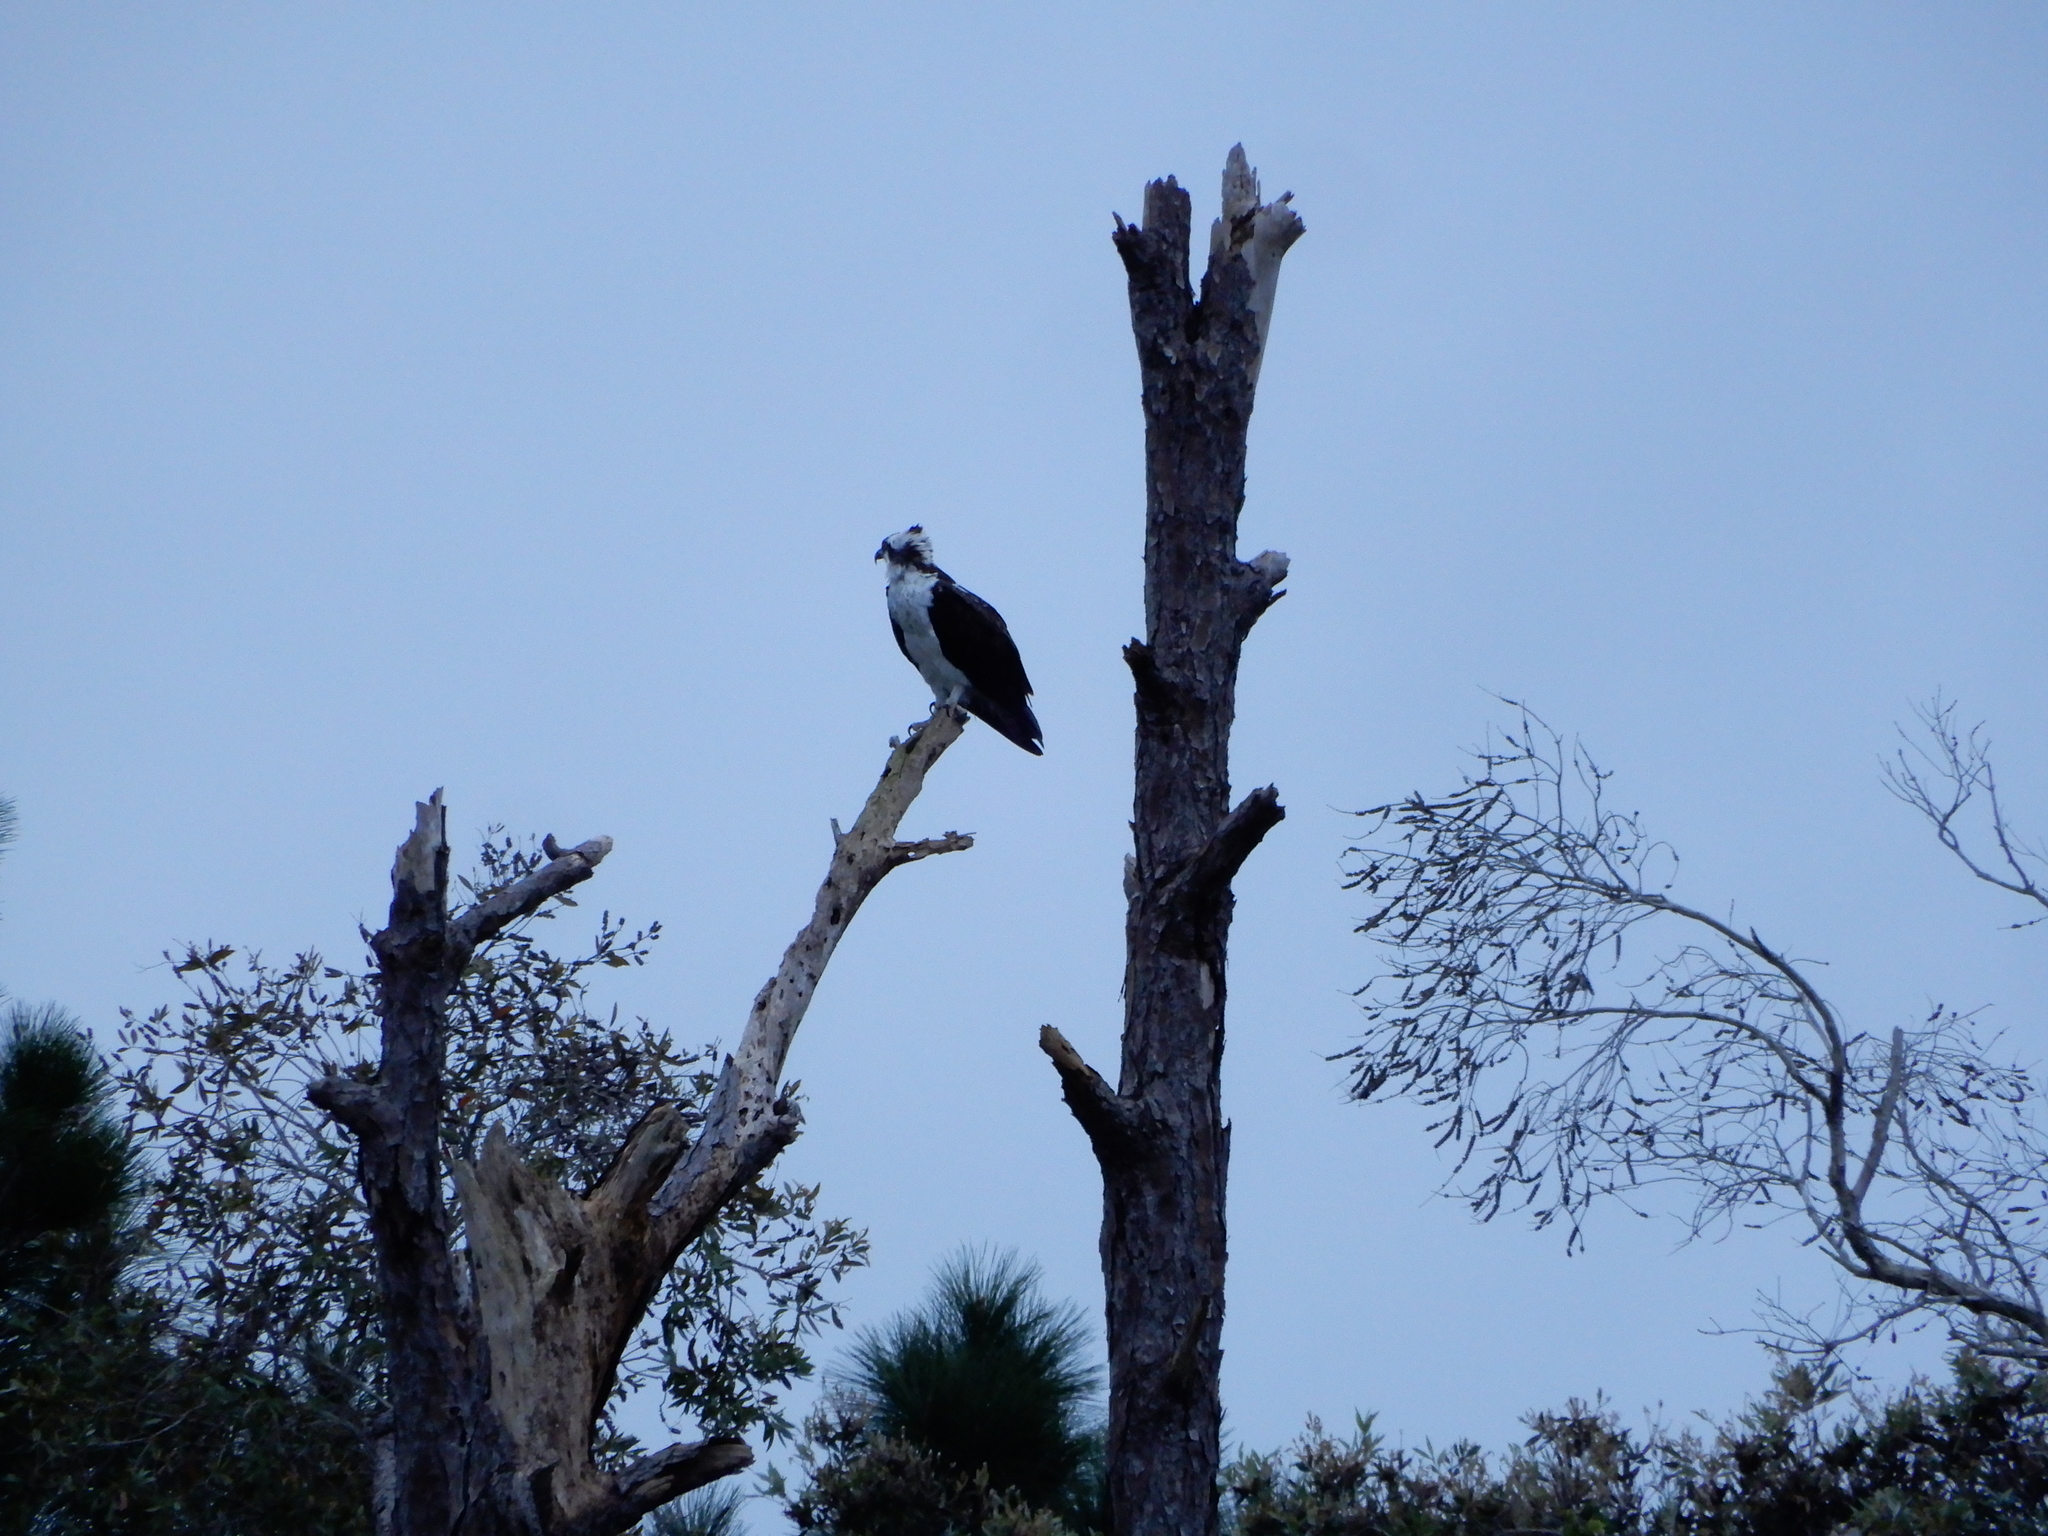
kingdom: Animalia
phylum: Chordata
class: Aves
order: Accipitriformes
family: Pandionidae
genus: Pandion
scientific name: Pandion haliaetus
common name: Osprey
